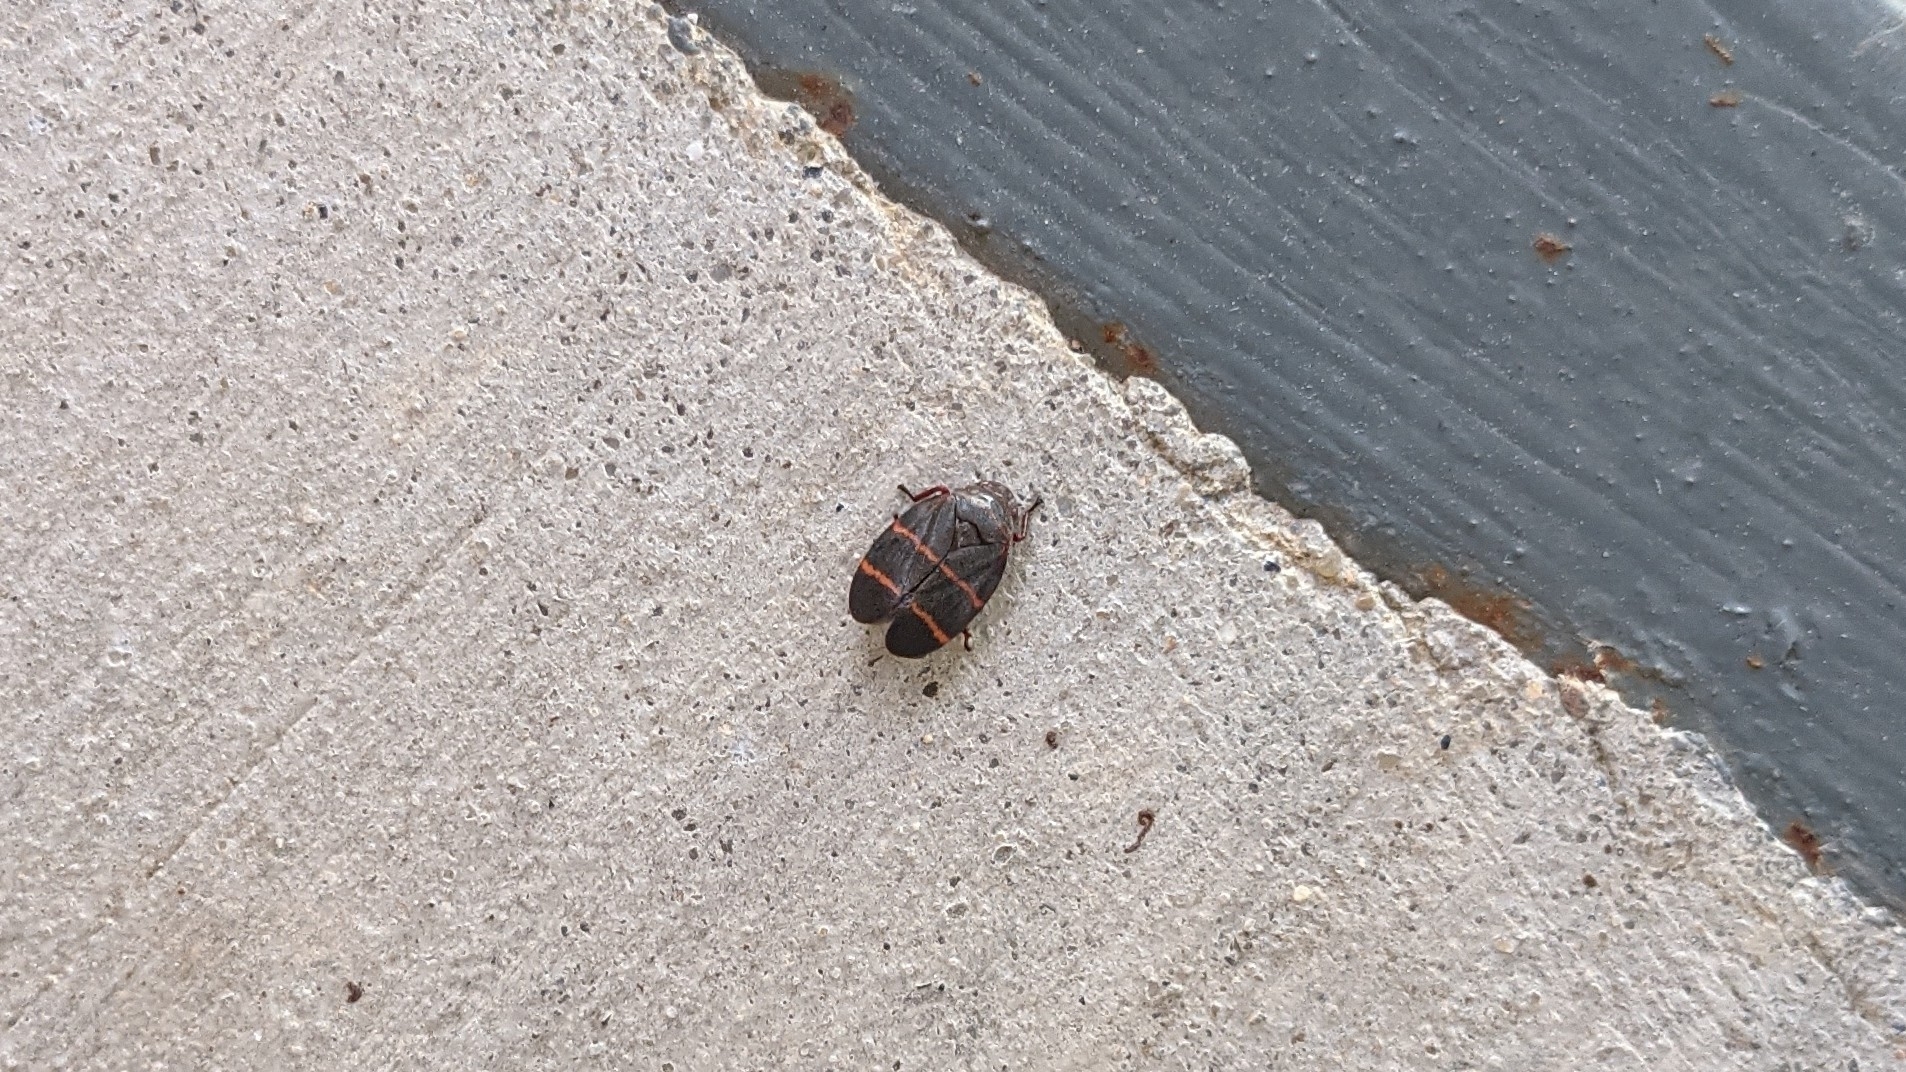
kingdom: Animalia
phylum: Arthropoda
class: Insecta
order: Hemiptera
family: Cercopidae
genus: Prosapia
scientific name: Prosapia bicincta
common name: Twolined spittlebug
